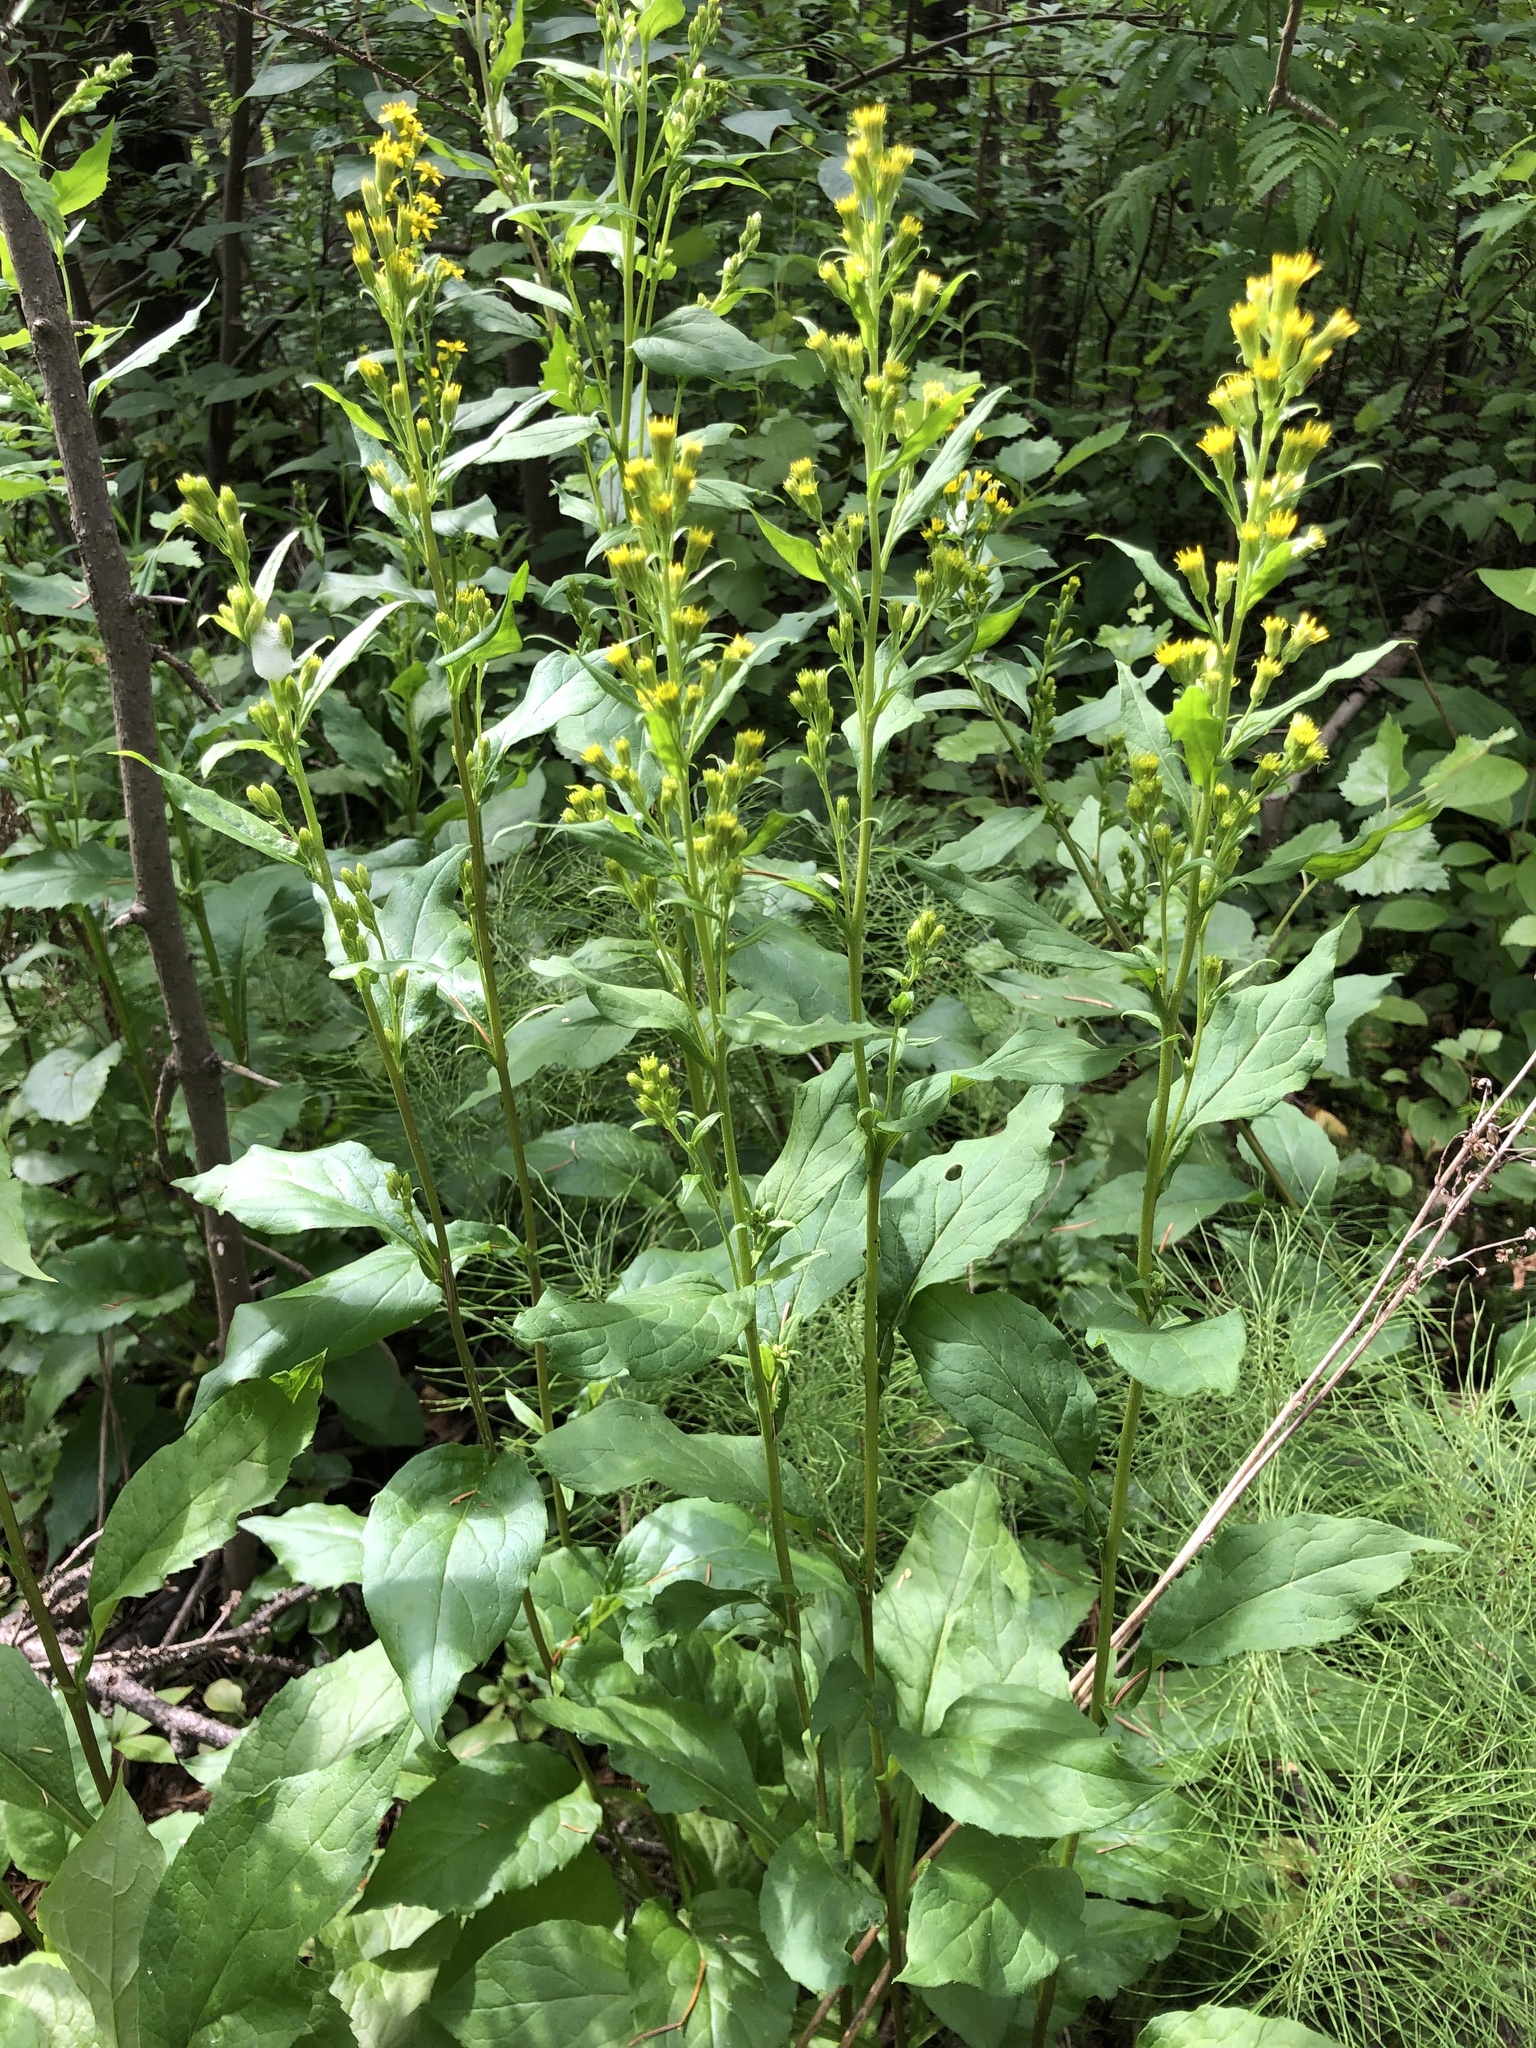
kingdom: Plantae
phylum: Tracheophyta
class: Magnoliopsida
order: Asterales
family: Asteraceae
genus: Solidago
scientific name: Solidago virgaurea
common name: Goldenrod
